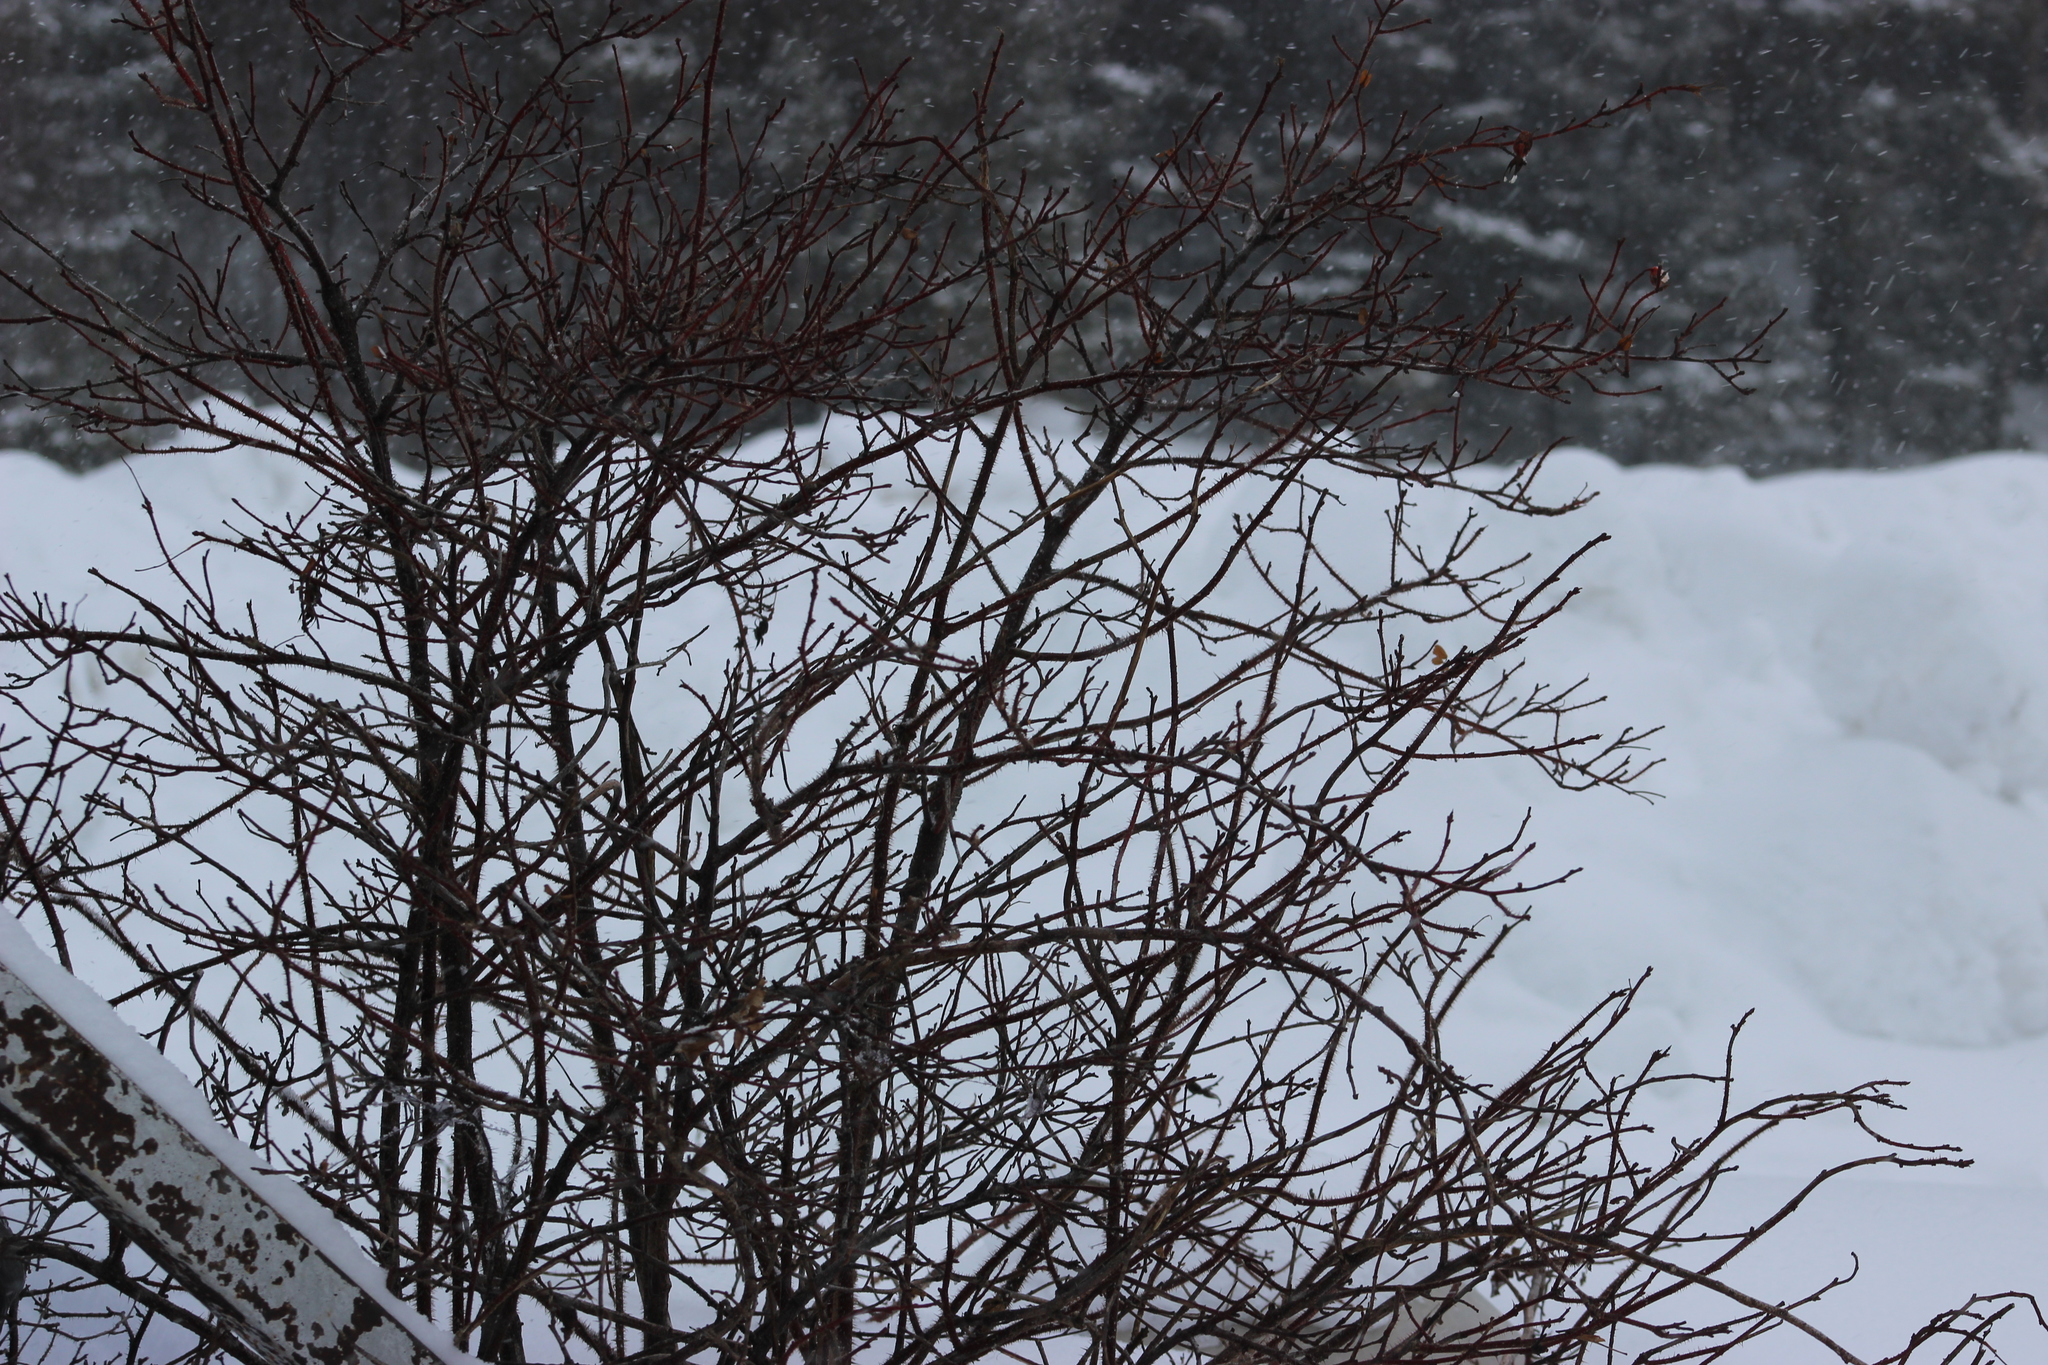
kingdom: Plantae
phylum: Tracheophyta
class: Magnoliopsida
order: Rosales
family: Rosaceae
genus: Rosa
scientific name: Rosa acicularis
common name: Prickly rose
